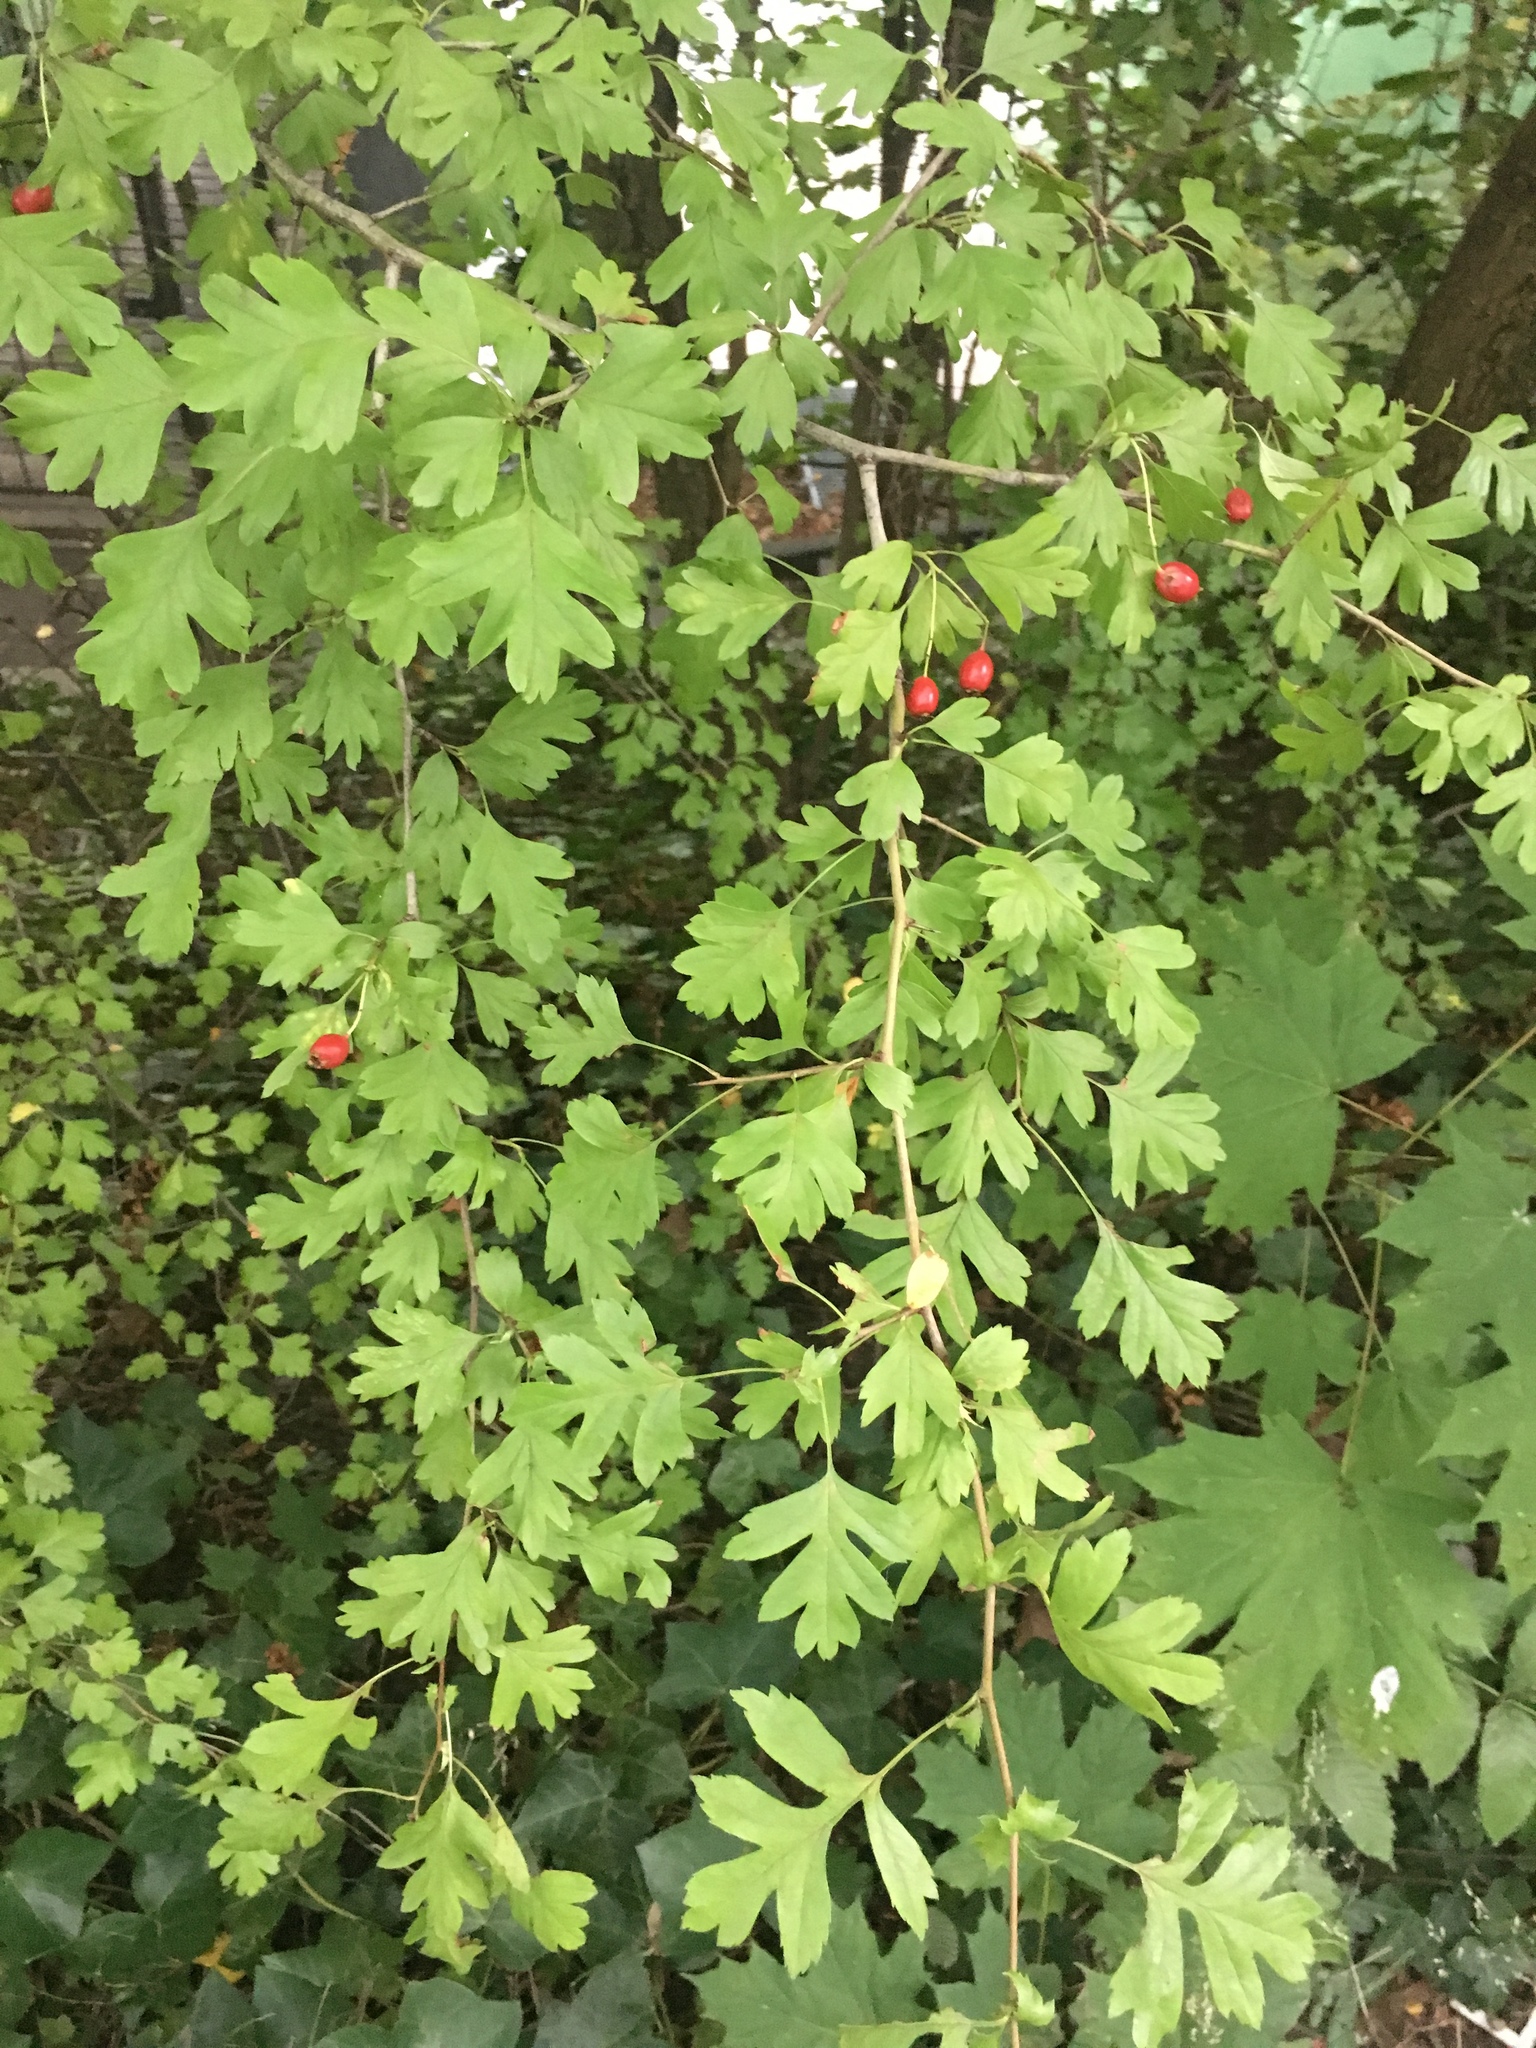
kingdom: Plantae
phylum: Tracheophyta
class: Magnoliopsida
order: Rosales
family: Rosaceae
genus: Crataegus
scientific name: Crataegus monogyna
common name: Hawthorn
